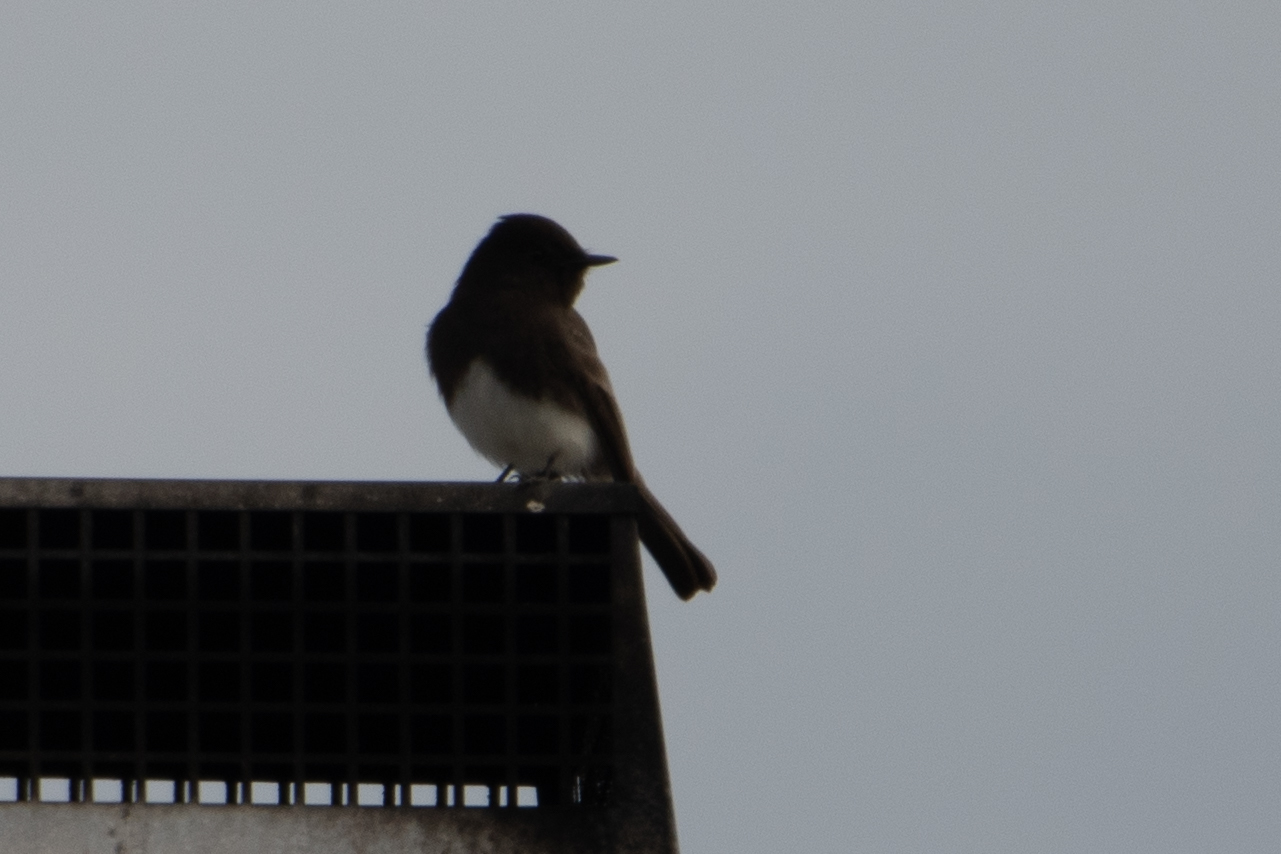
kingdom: Animalia
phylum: Chordata
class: Aves
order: Passeriformes
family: Tyrannidae
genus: Sayornis
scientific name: Sayornis nigricans
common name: Black phoebe
